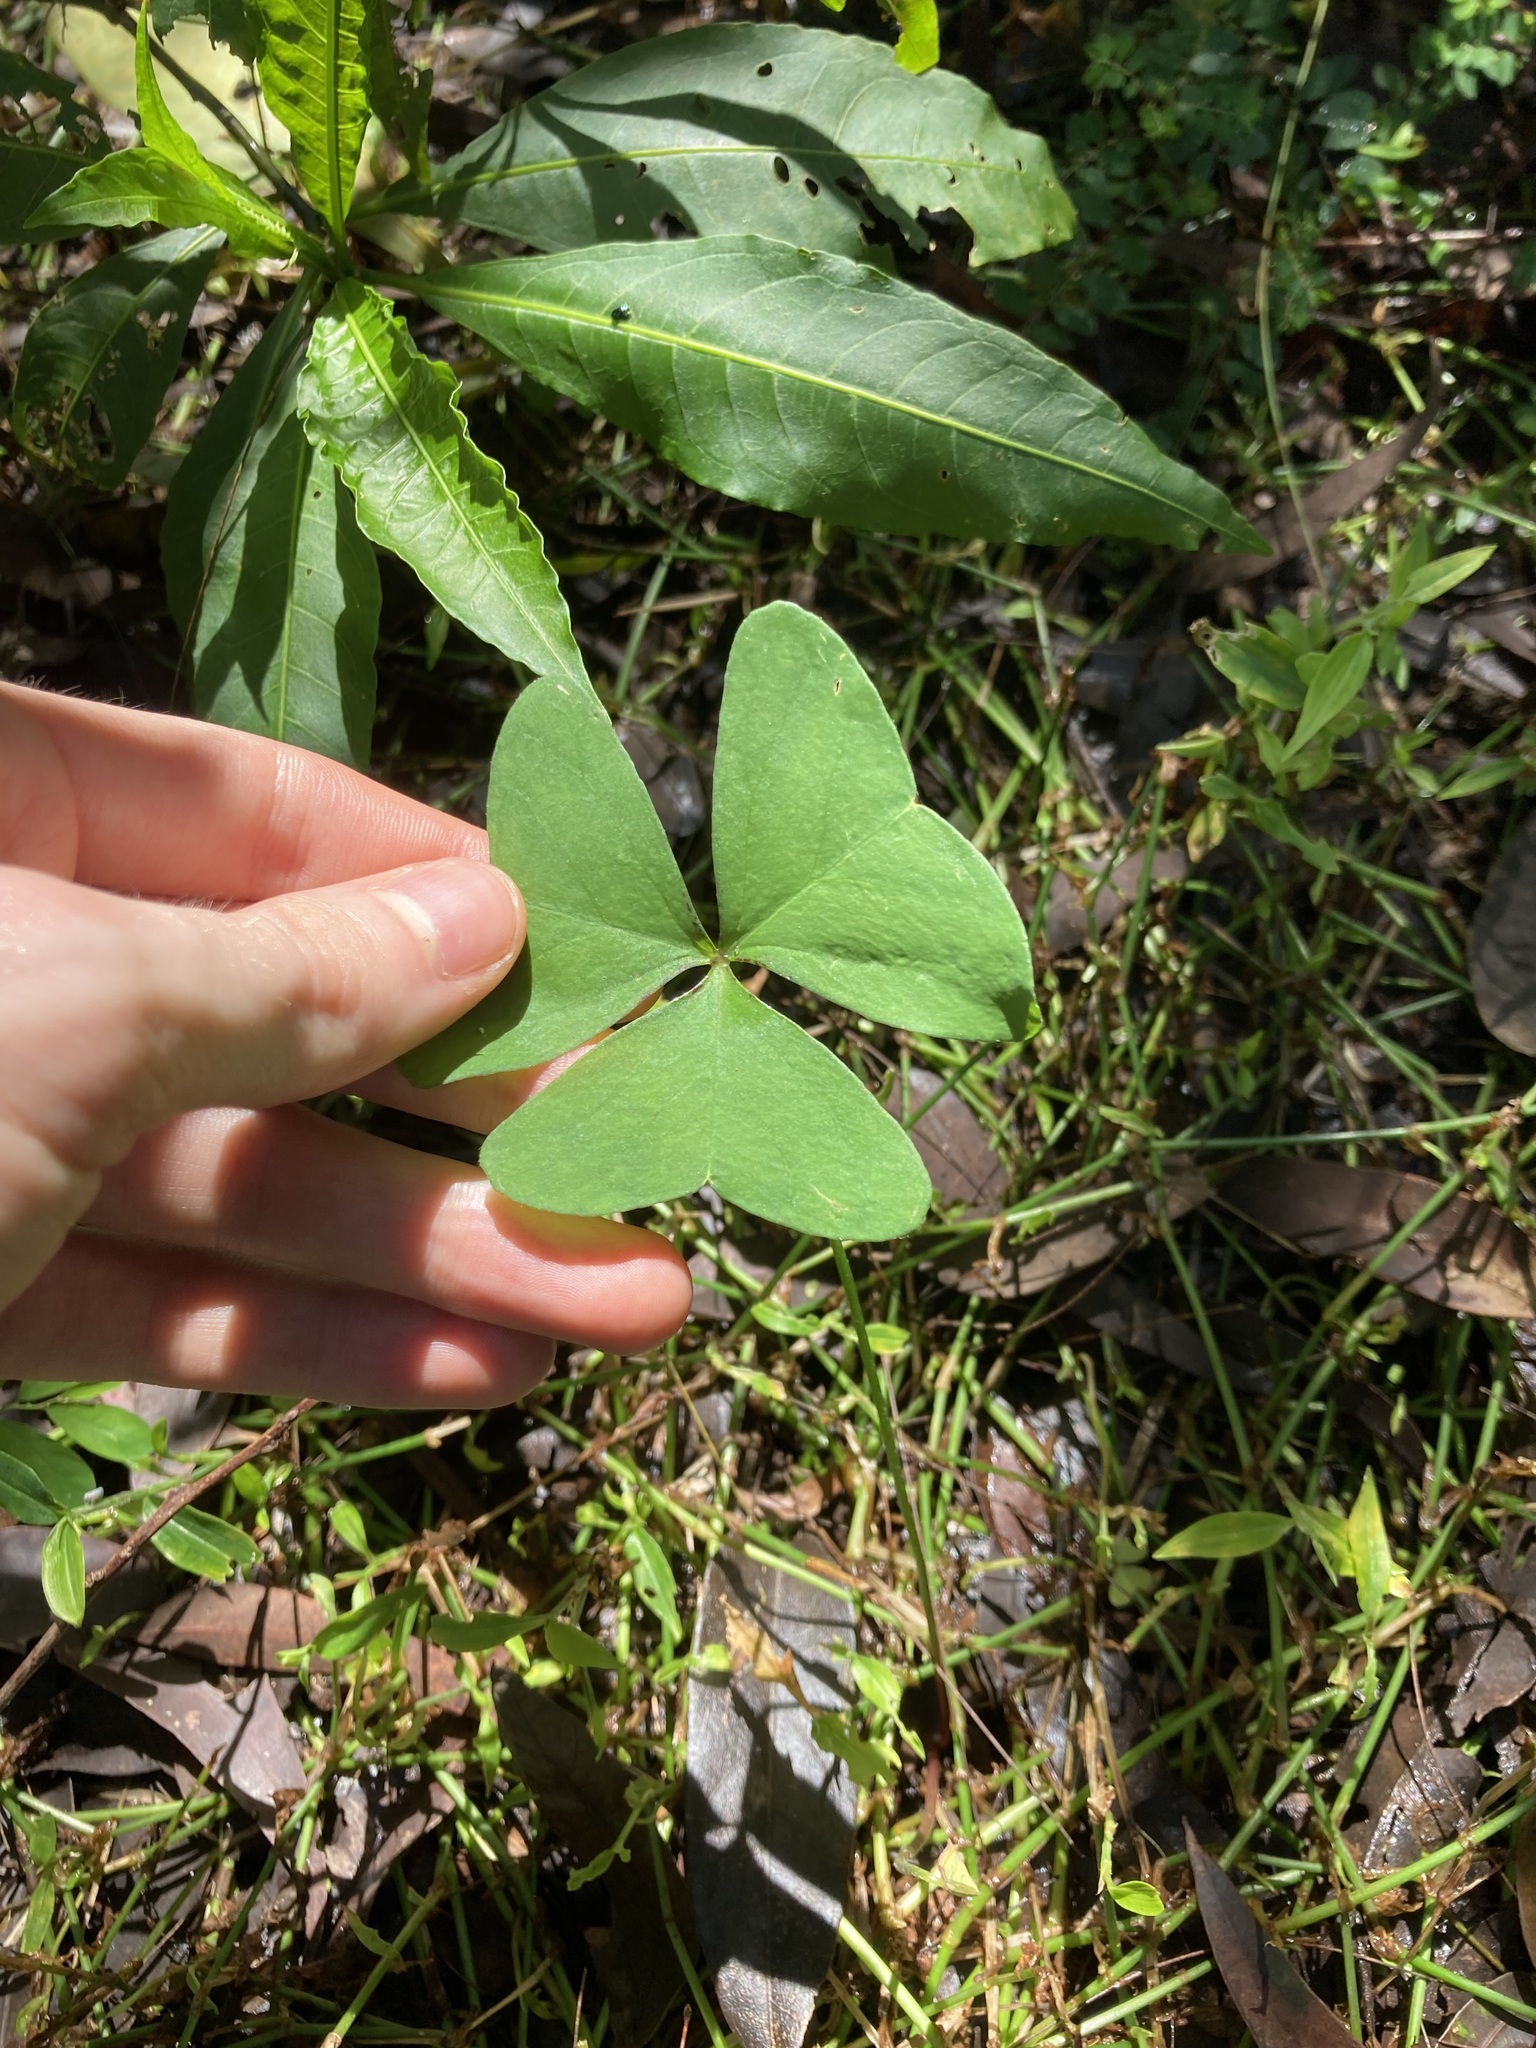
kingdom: Plantae
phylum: Tracheophyta
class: Magnoliopsida
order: Oxalidales
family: Oxalidaceae
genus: Oxalis
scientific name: Oxalis latifolia
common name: Garden pink-sorrel
